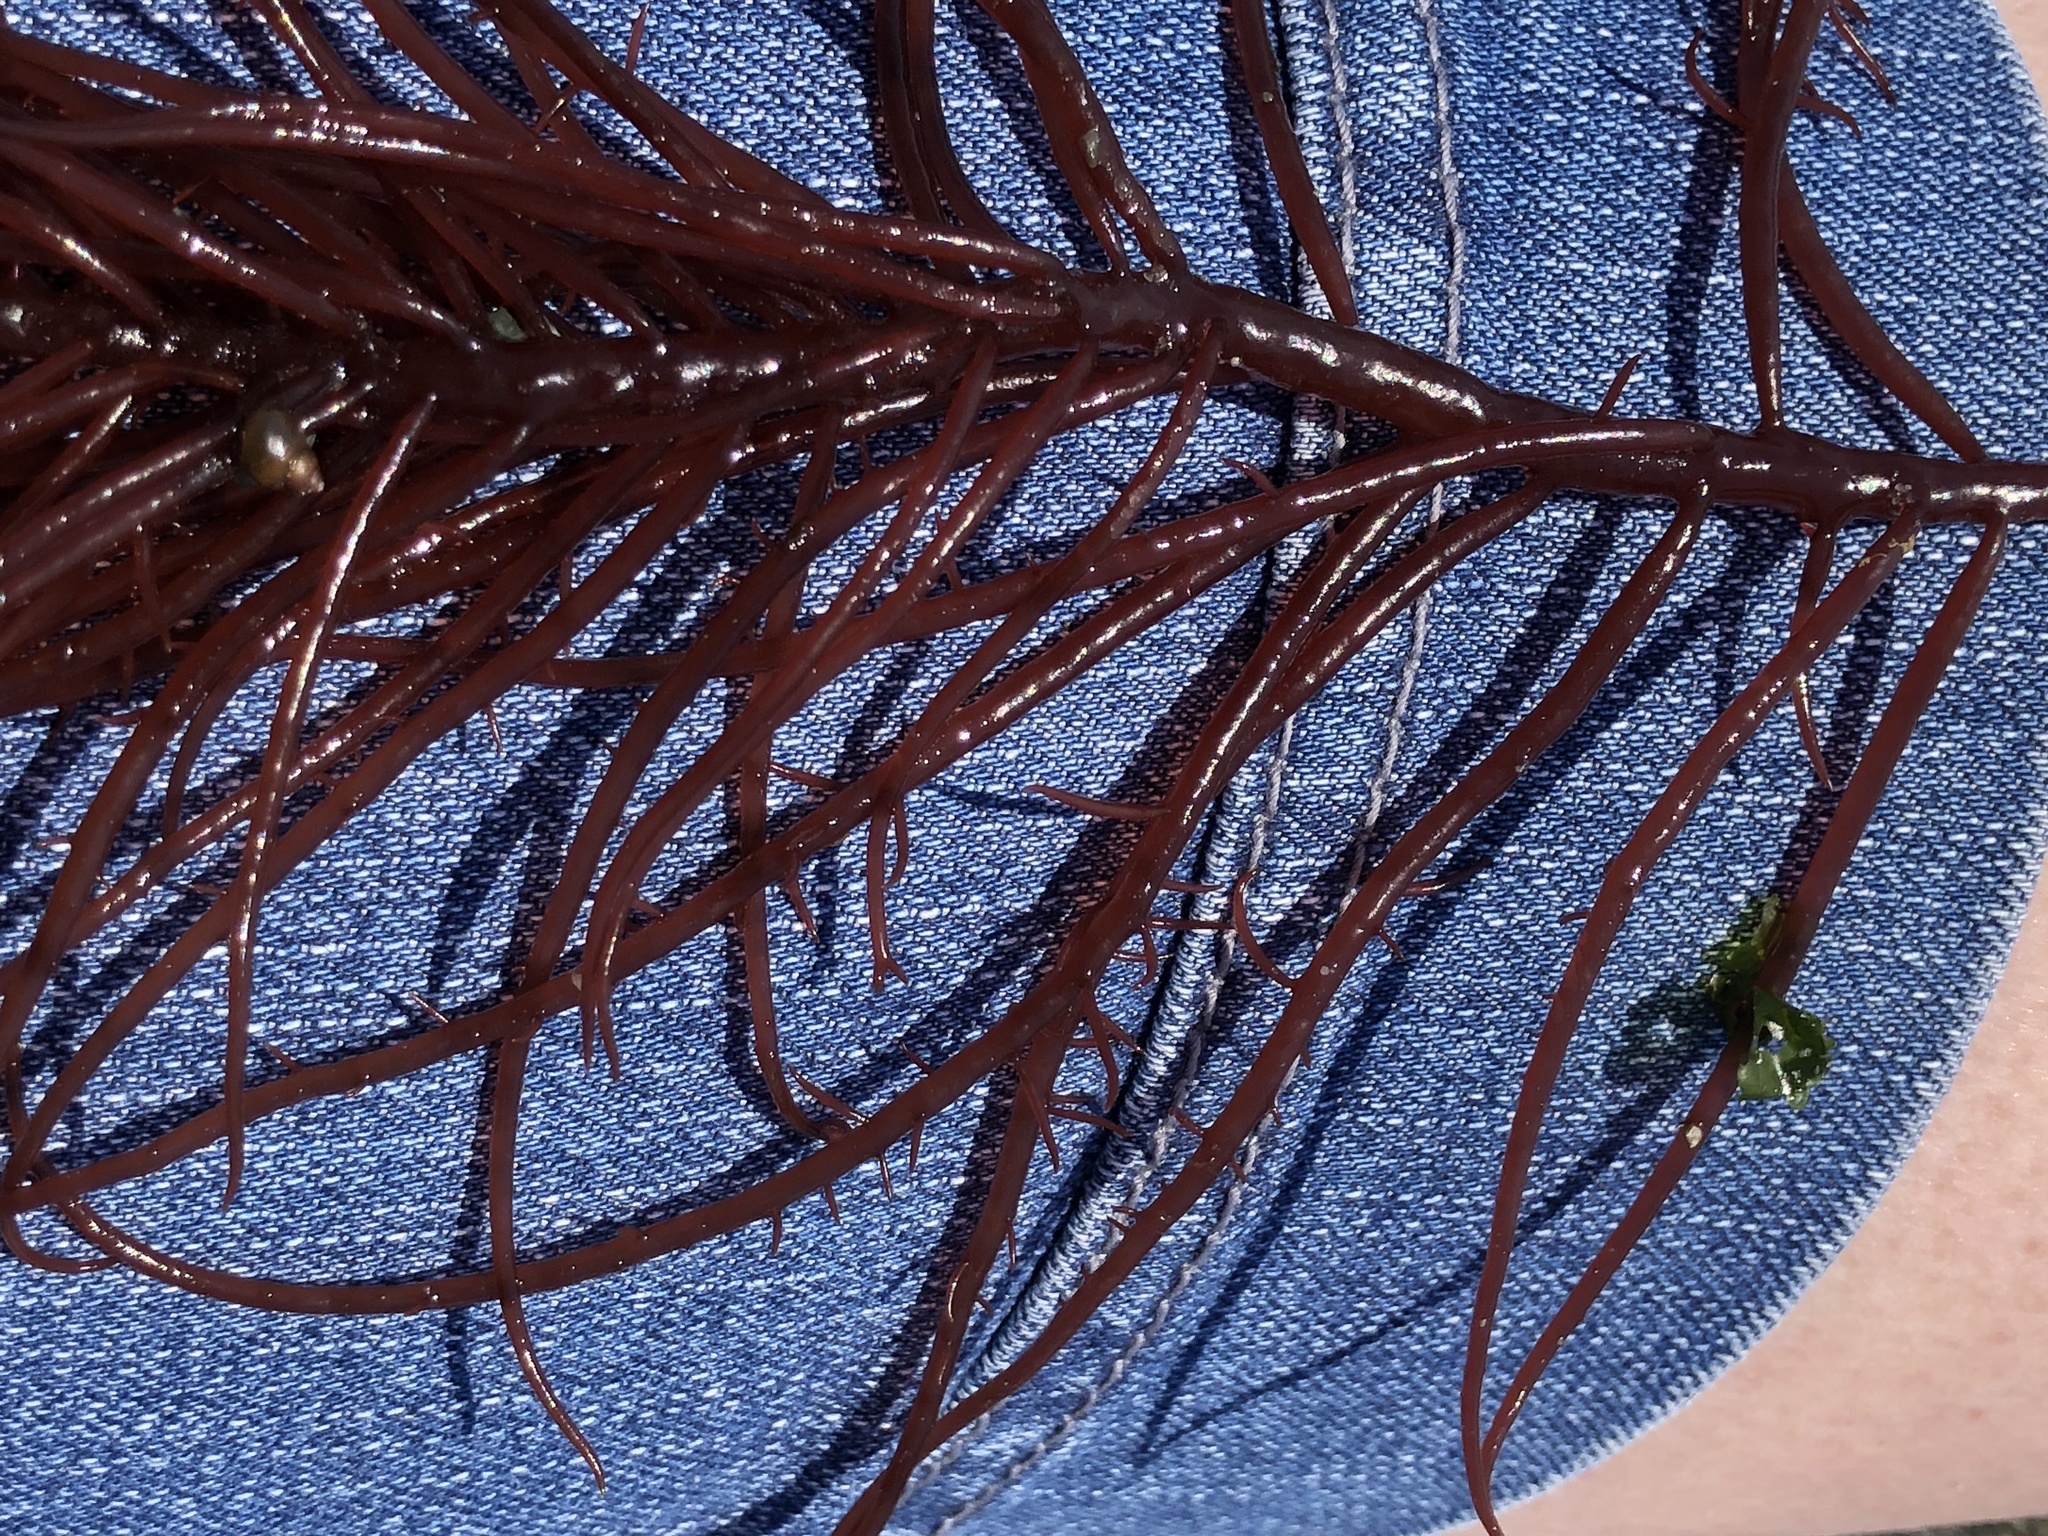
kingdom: Plantae
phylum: Rhodophyta
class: Florideophyceae
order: Gigartinales
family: Solieriaceae
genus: Sarcodiotheca
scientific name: Sarcodiotheca gaudichaudii
